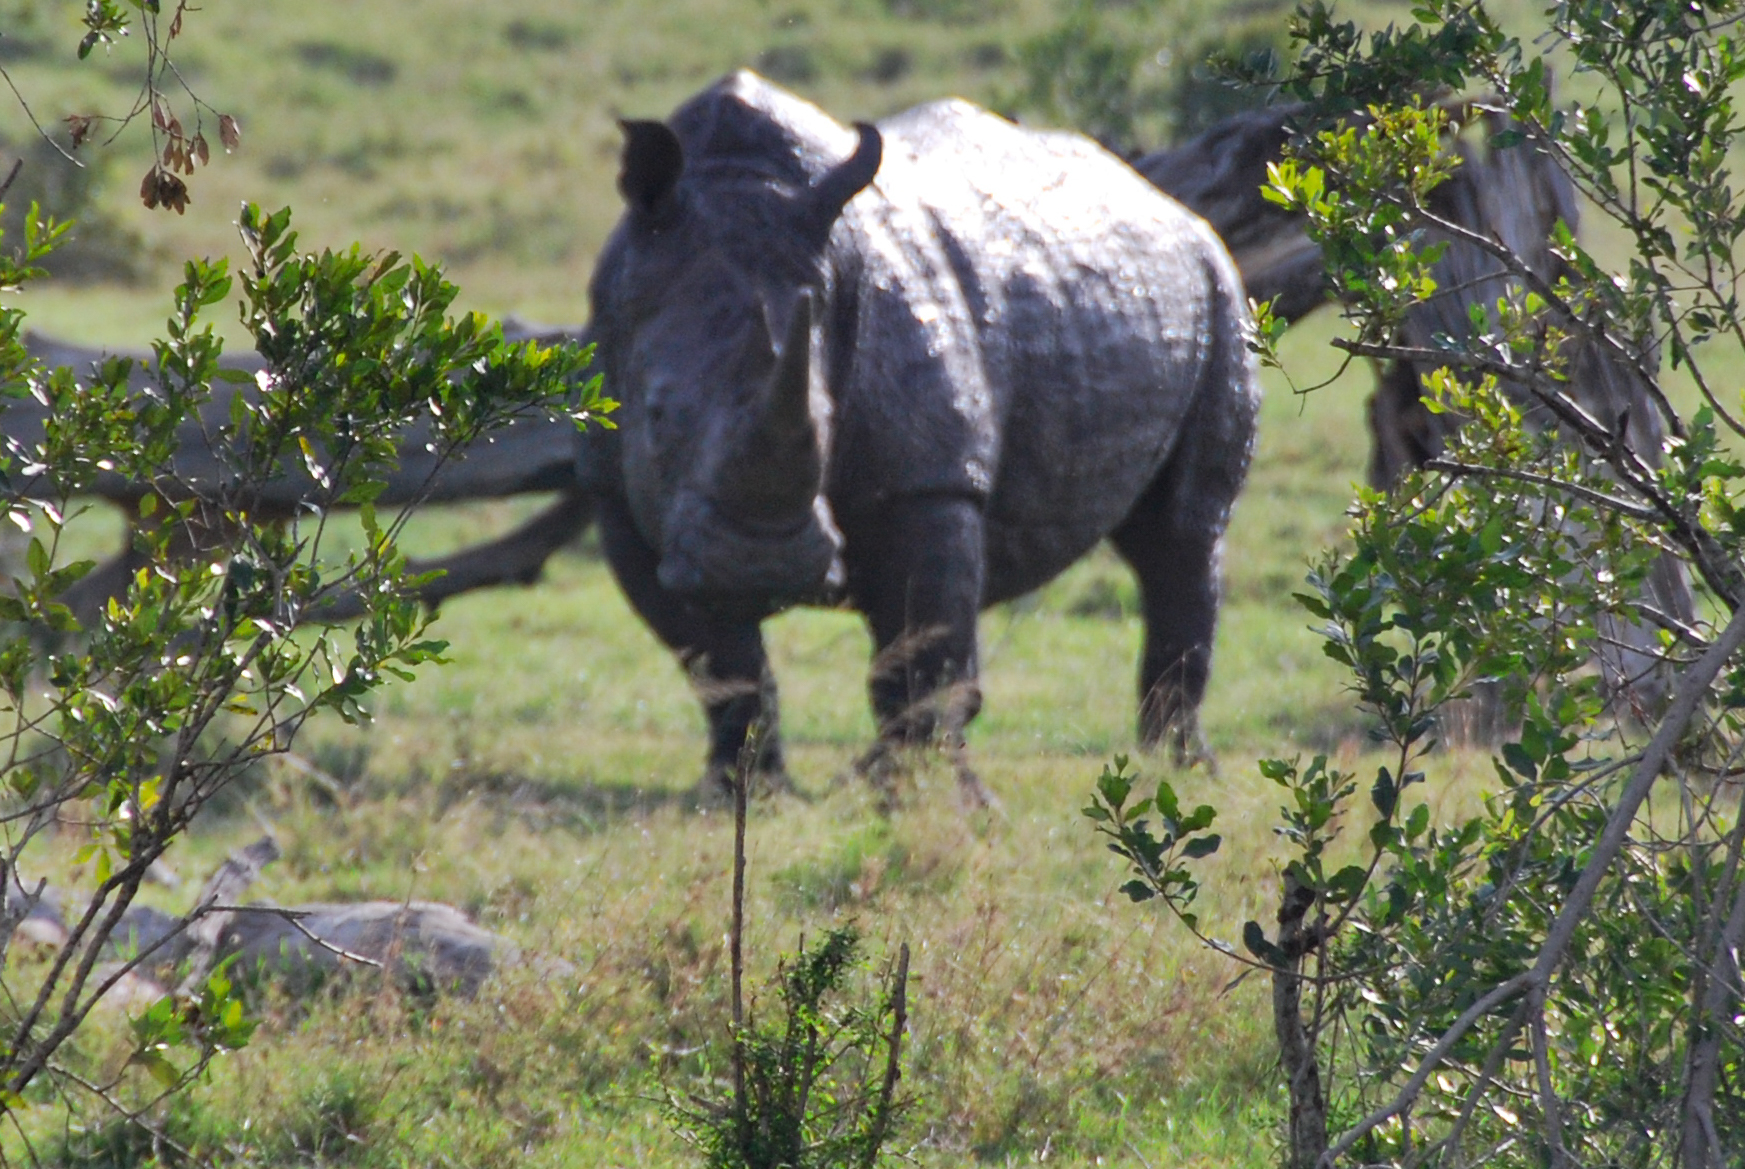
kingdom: Animalia
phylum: Chordata
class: Mammalia
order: Perissodactyla
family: Rhinocerotidae
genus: Ceratotherium
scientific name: Ceratotherium simum
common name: White rhinoceros
